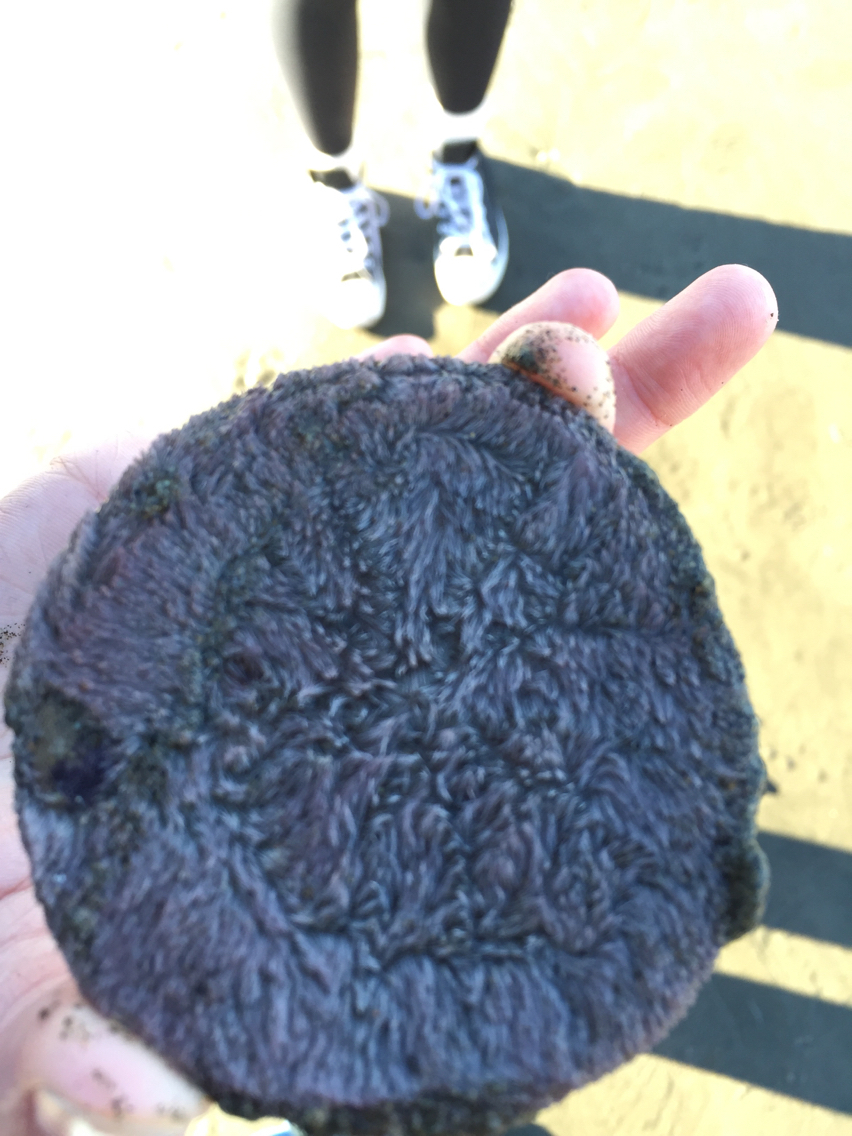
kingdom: Animalia
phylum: Echinodermata
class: Echinoidea
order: Echinolampadacea
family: Dendrasteridae
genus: Dendraster
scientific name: Dendraster excentricus
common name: Eccentric sand dollar sea urchin
